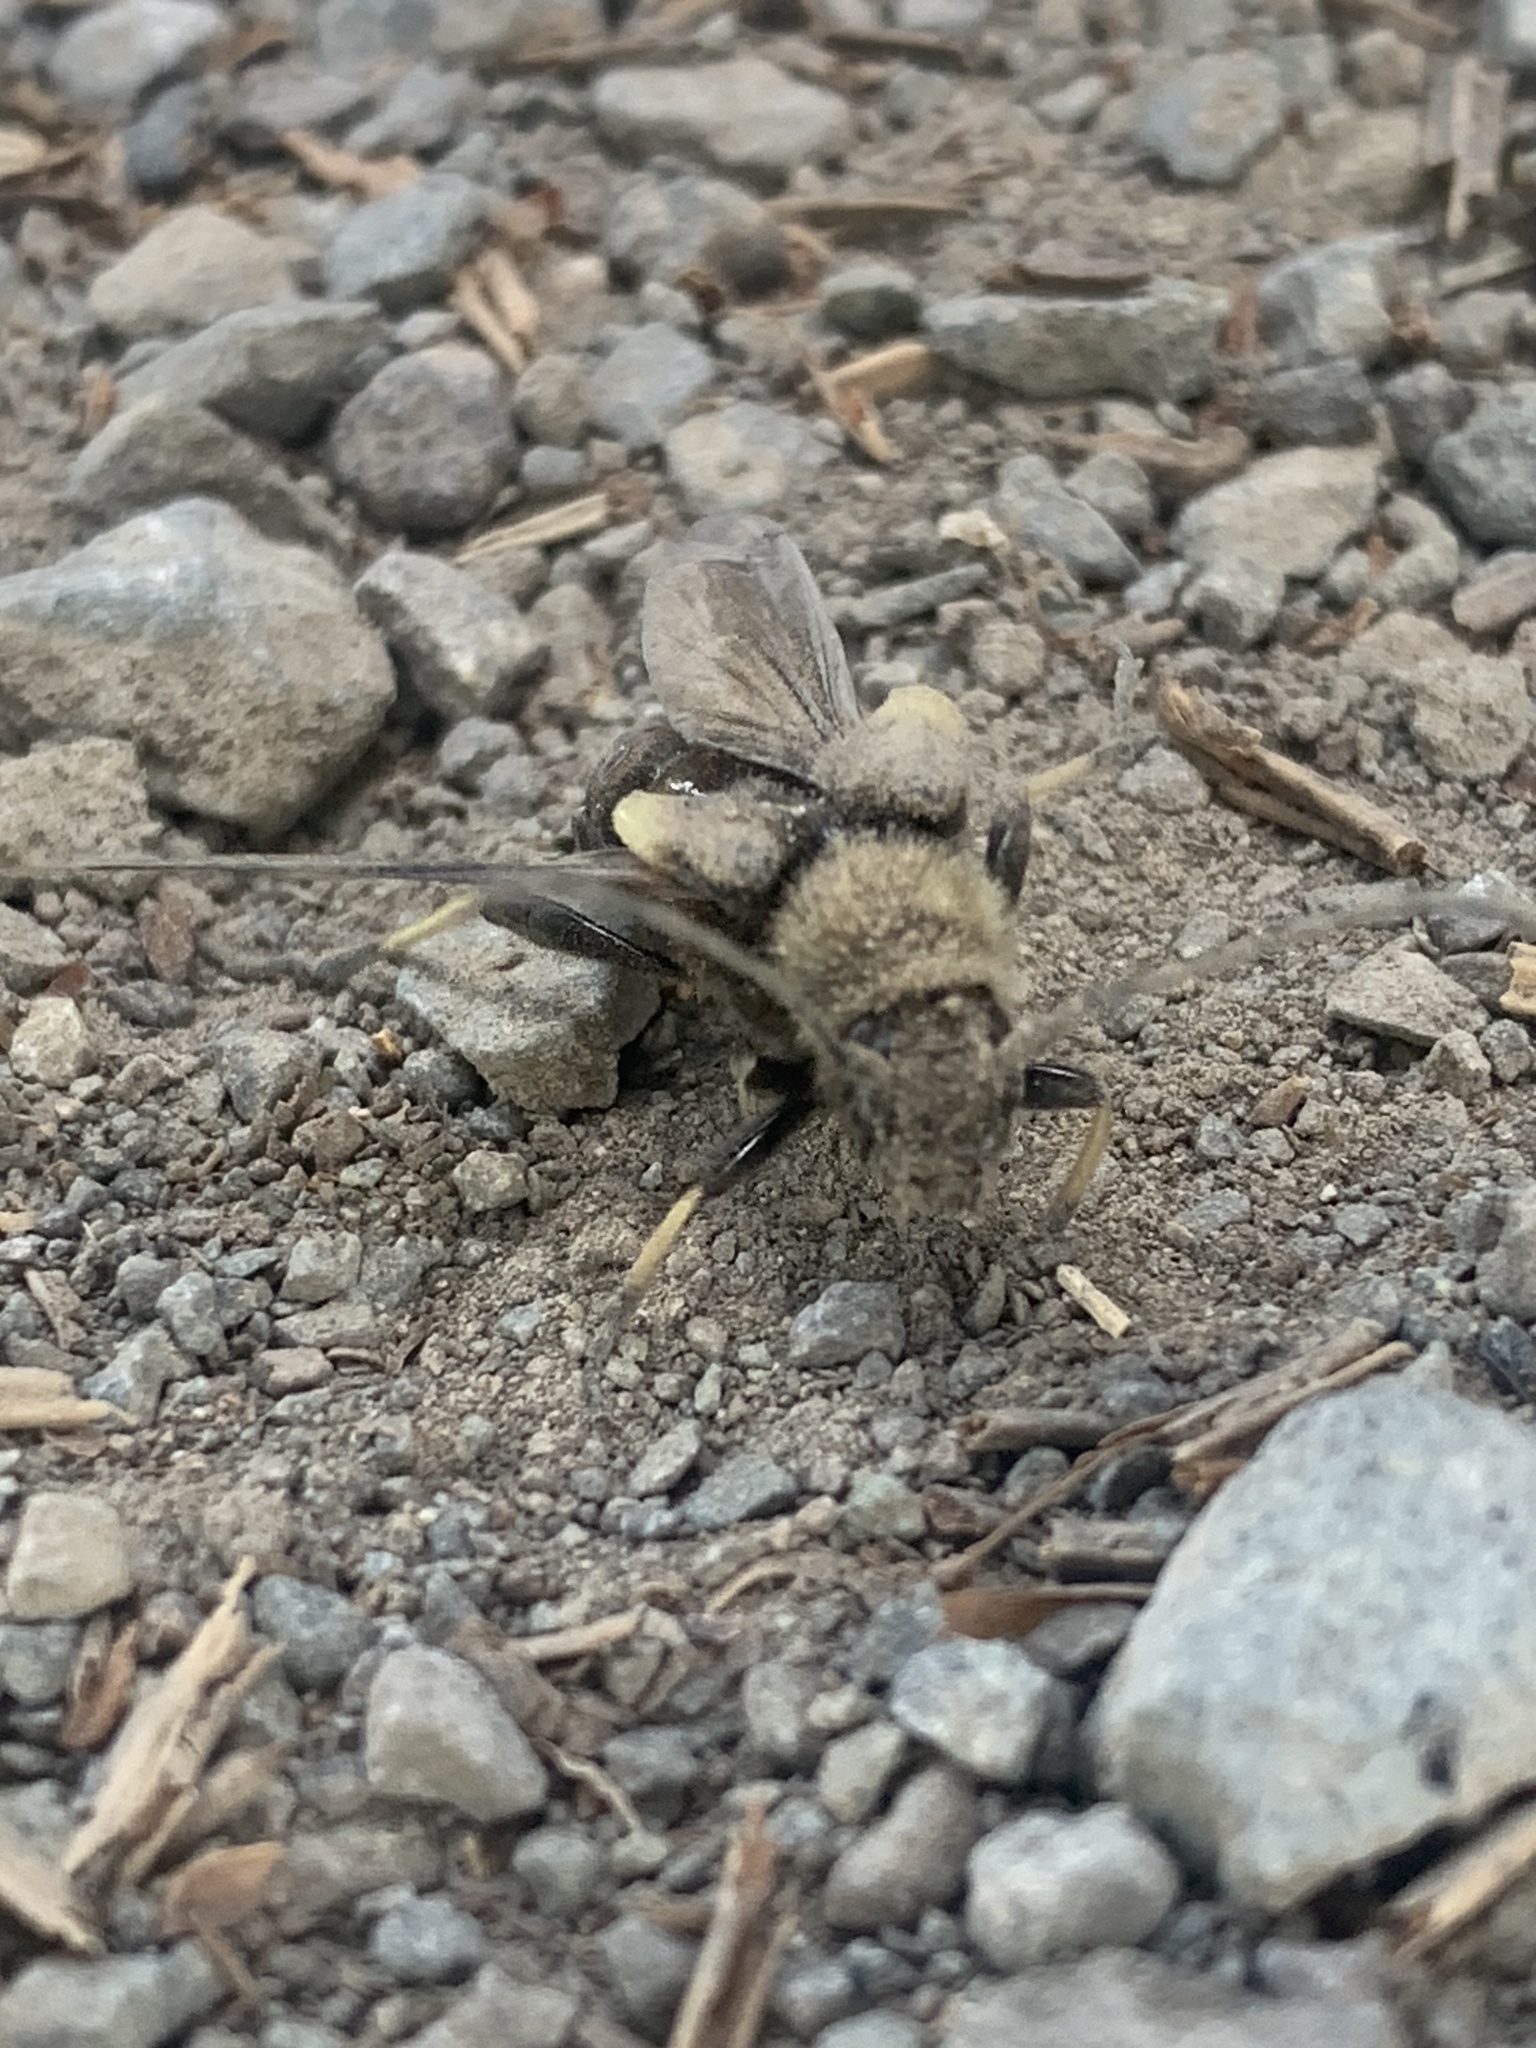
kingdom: Animalia
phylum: Arthropoda
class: Insecta
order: Coleoptera
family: Cerambycidae
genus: Ulochaetes
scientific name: Ulochaetes leoninus
